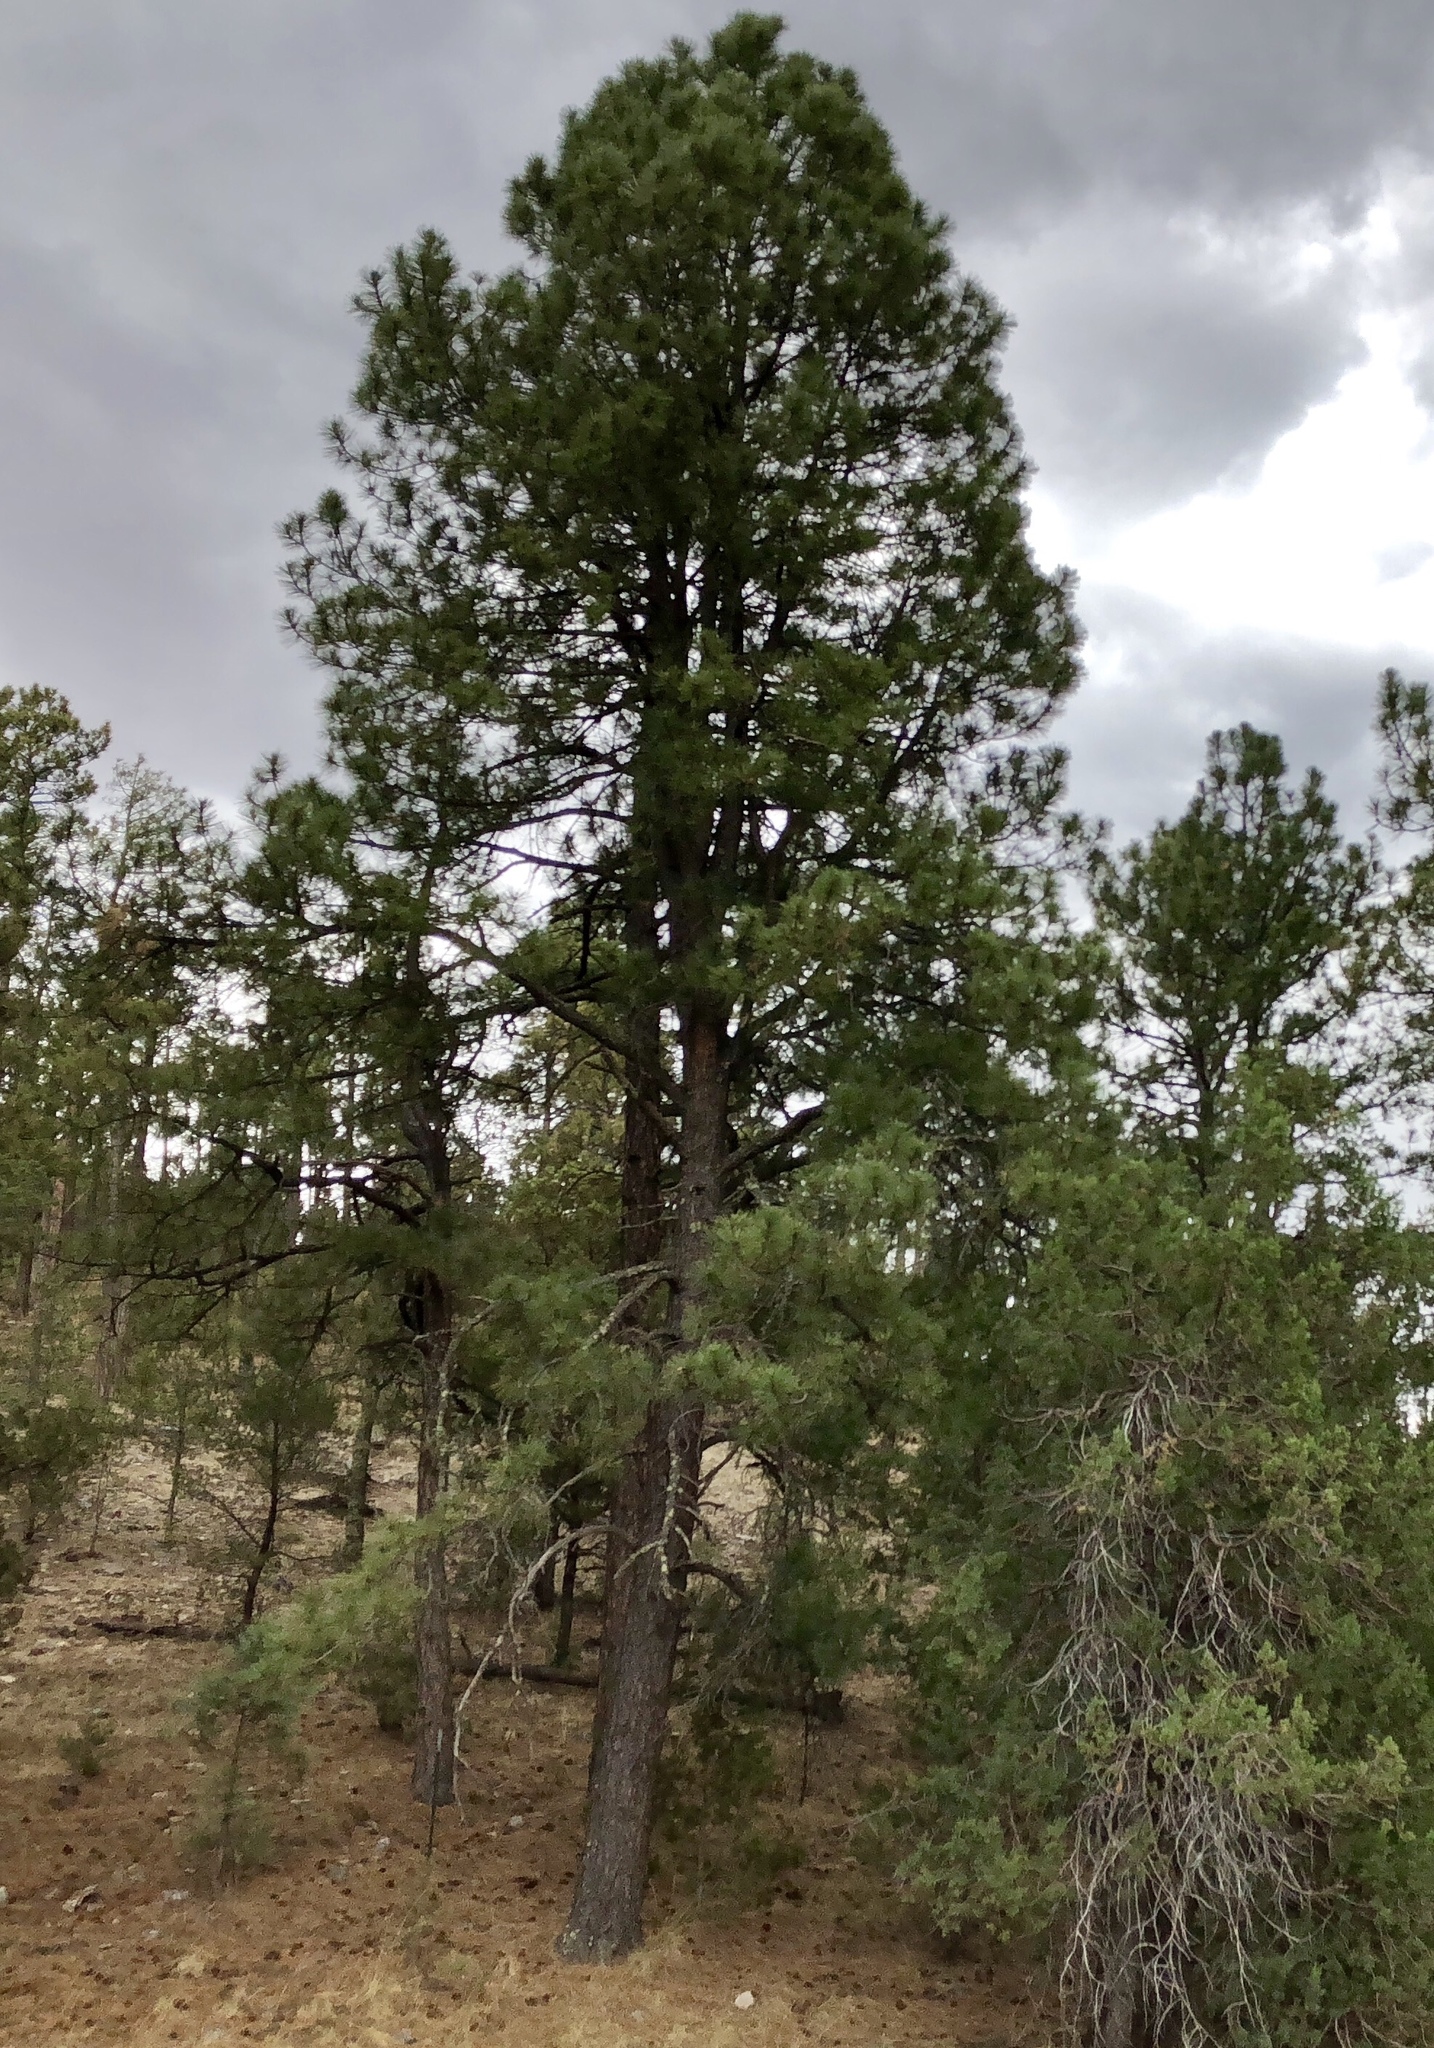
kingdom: Plantae
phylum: Tracheophyta
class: Pinopsida
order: Pinales
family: Pinaceae
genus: Pinus
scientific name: Pinus ponderosa
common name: Western yellow-pine
